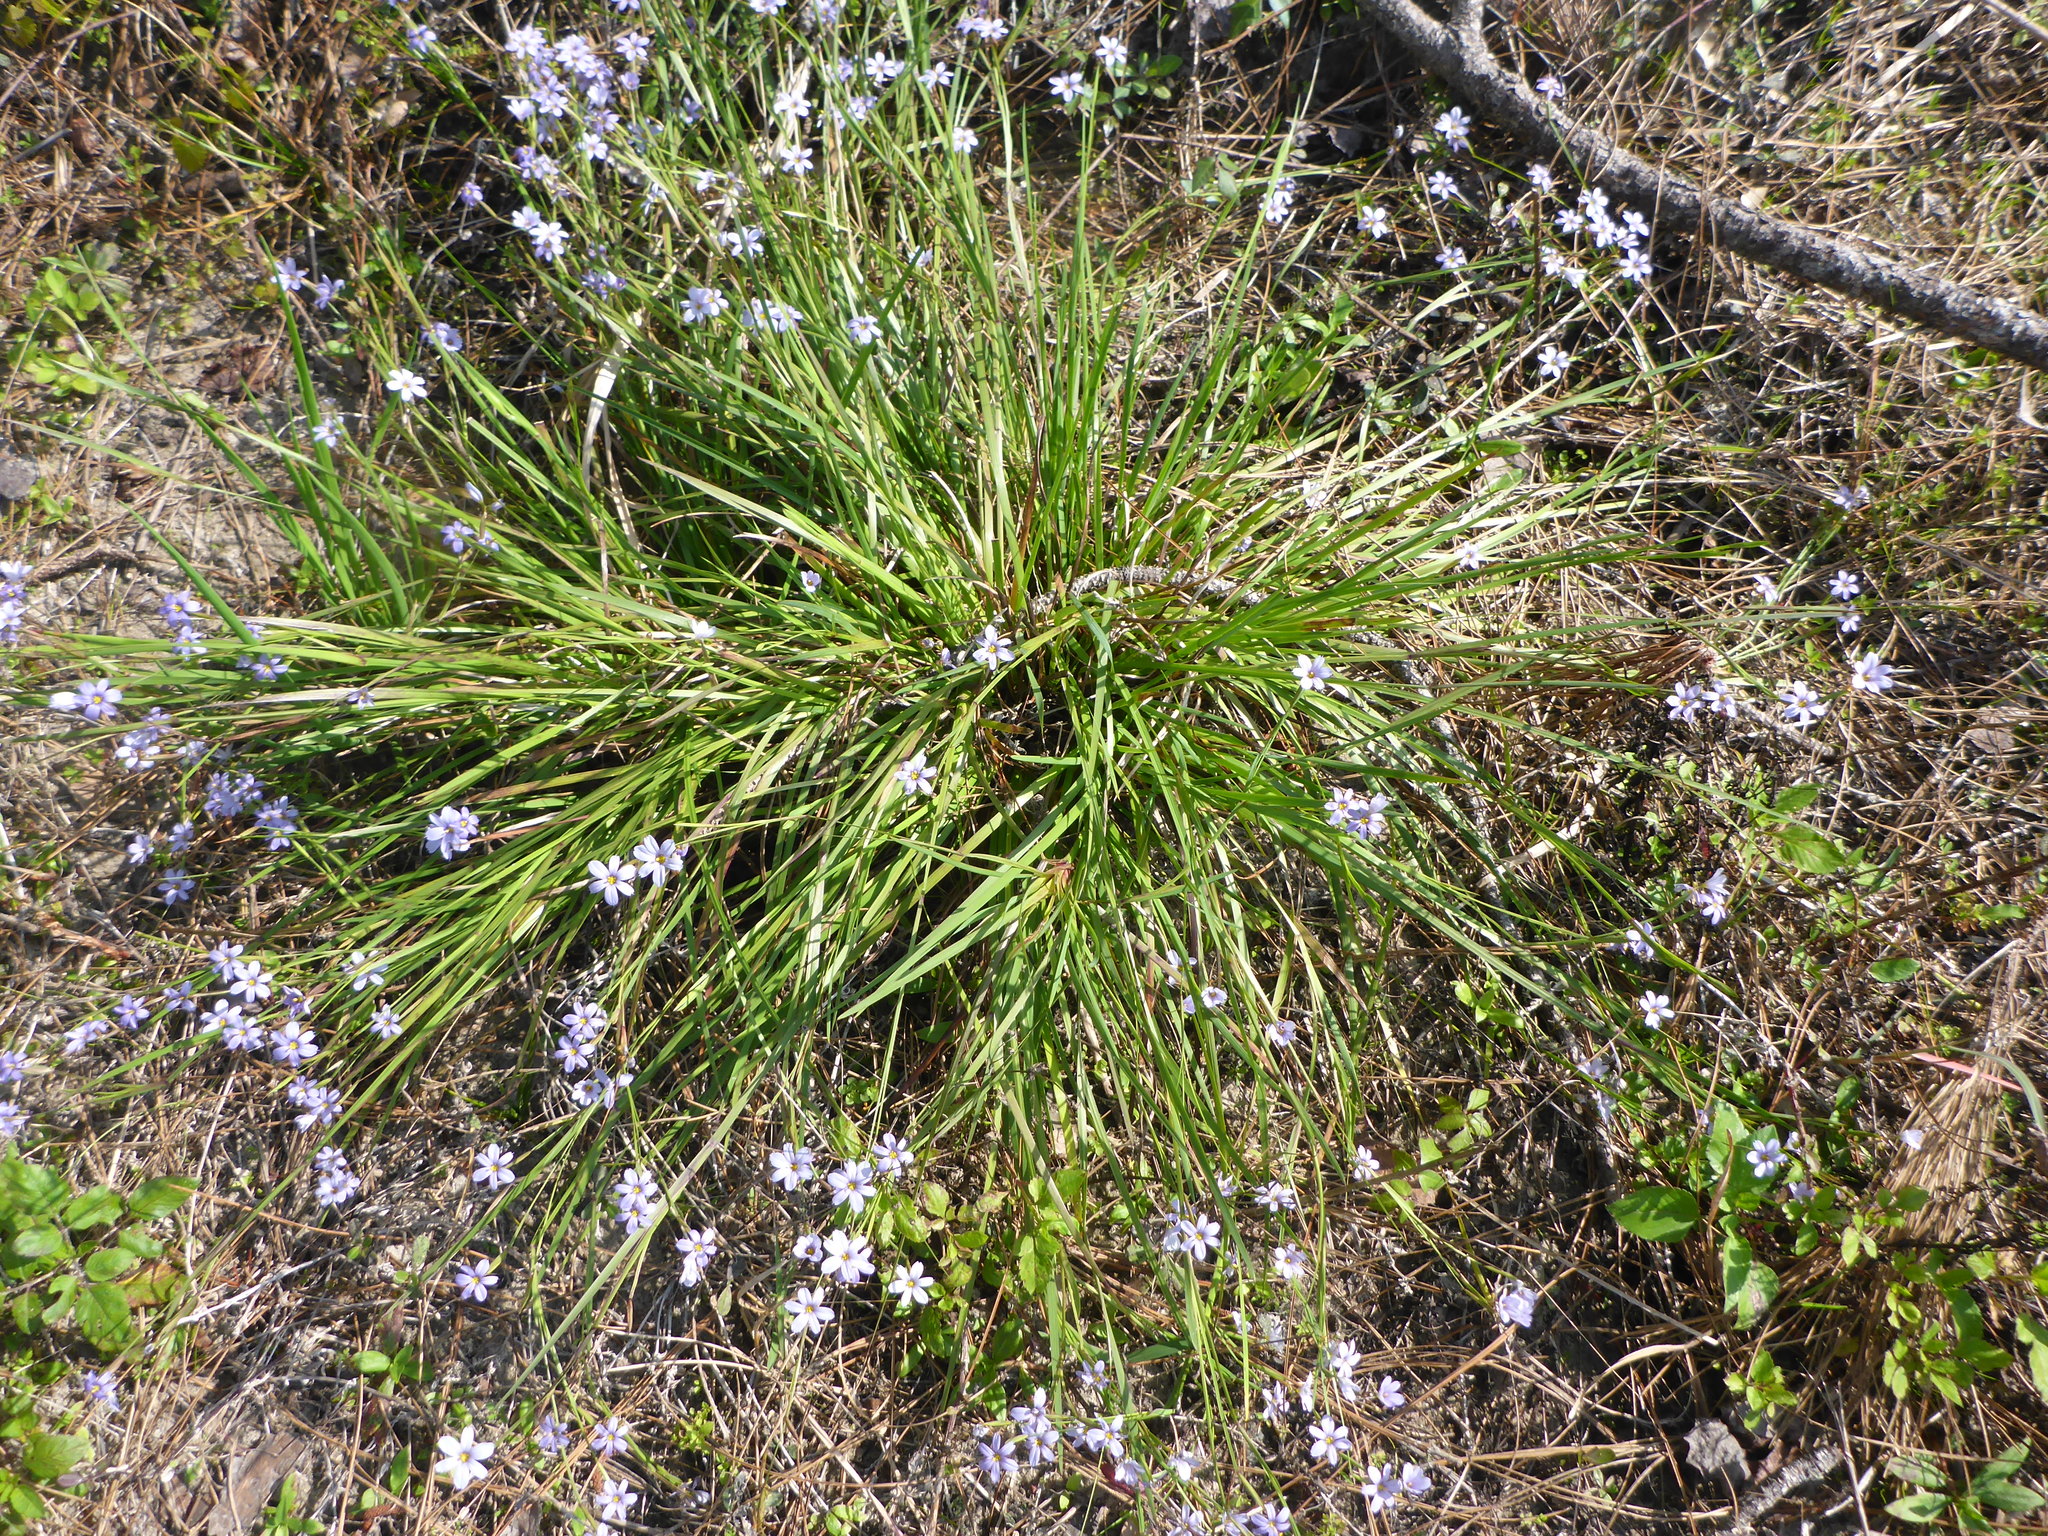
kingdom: Plantae
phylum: Tracheophyta
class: Liliopsida
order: Asparagales
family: Iridaceae
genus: Sisyrinchium
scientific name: Sisyrinchium atlanticum
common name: Eastern blue-eyed-grass
